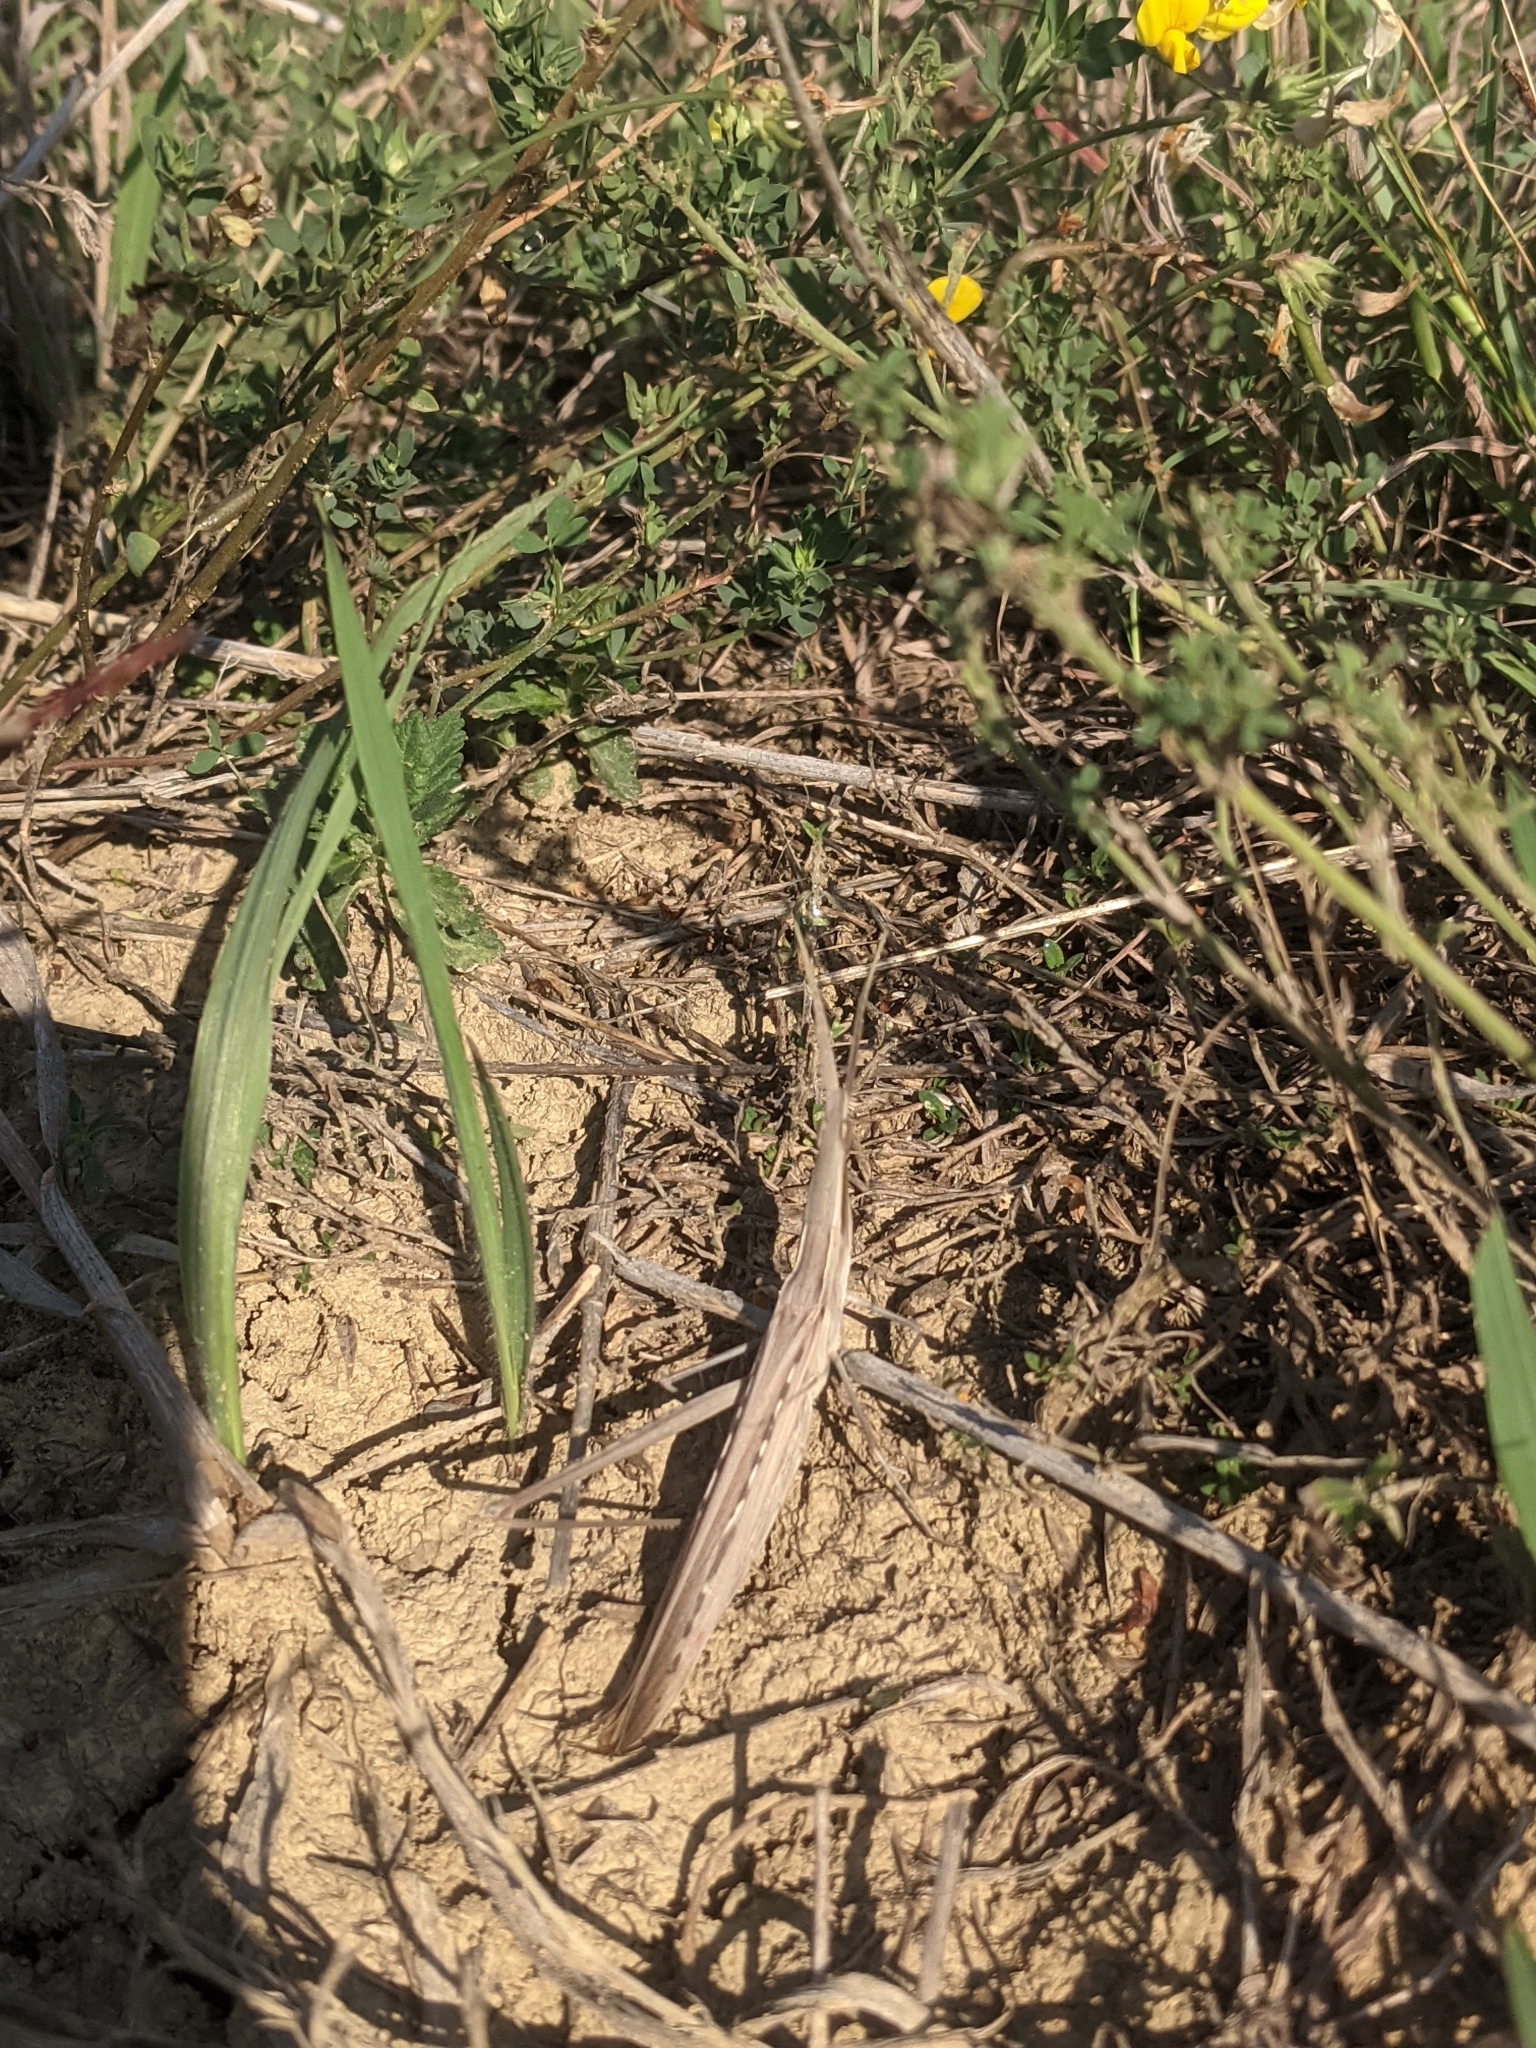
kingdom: Animalia
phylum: Arthropoda
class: Insecta
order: Orthoptera
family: Acrididae
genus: Acrida
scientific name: Acrida ungarica
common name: Common cone-headed grasshopper
